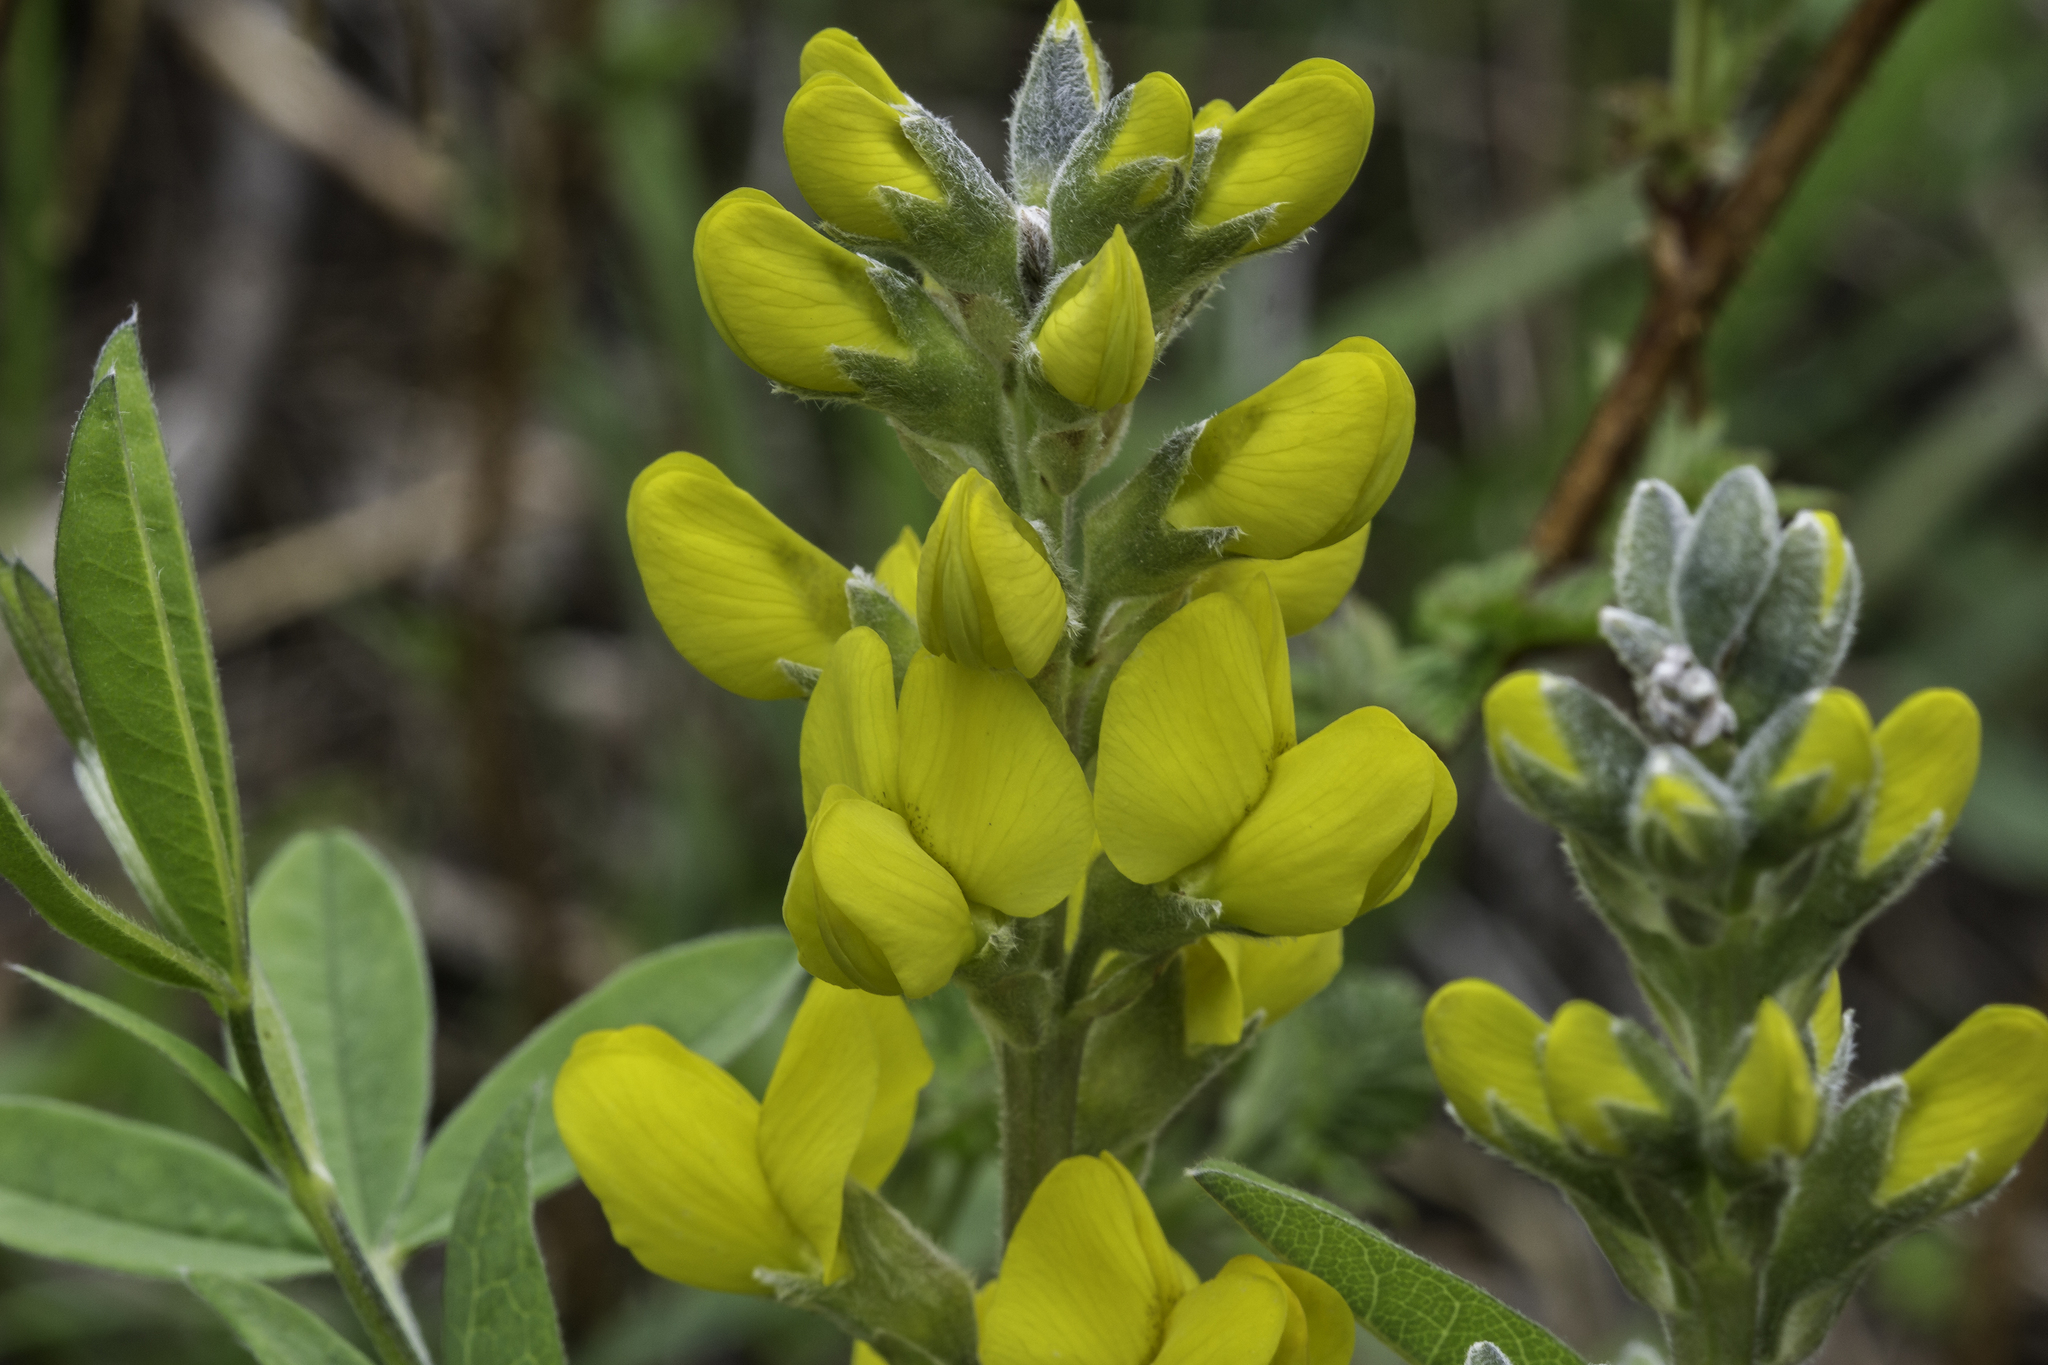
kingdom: Plantae
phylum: Tracheophyta
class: Magnoliopsida
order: Fabales
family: Fabaceae
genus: Thermopsis
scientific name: Thermopsis montana
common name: False lupin
